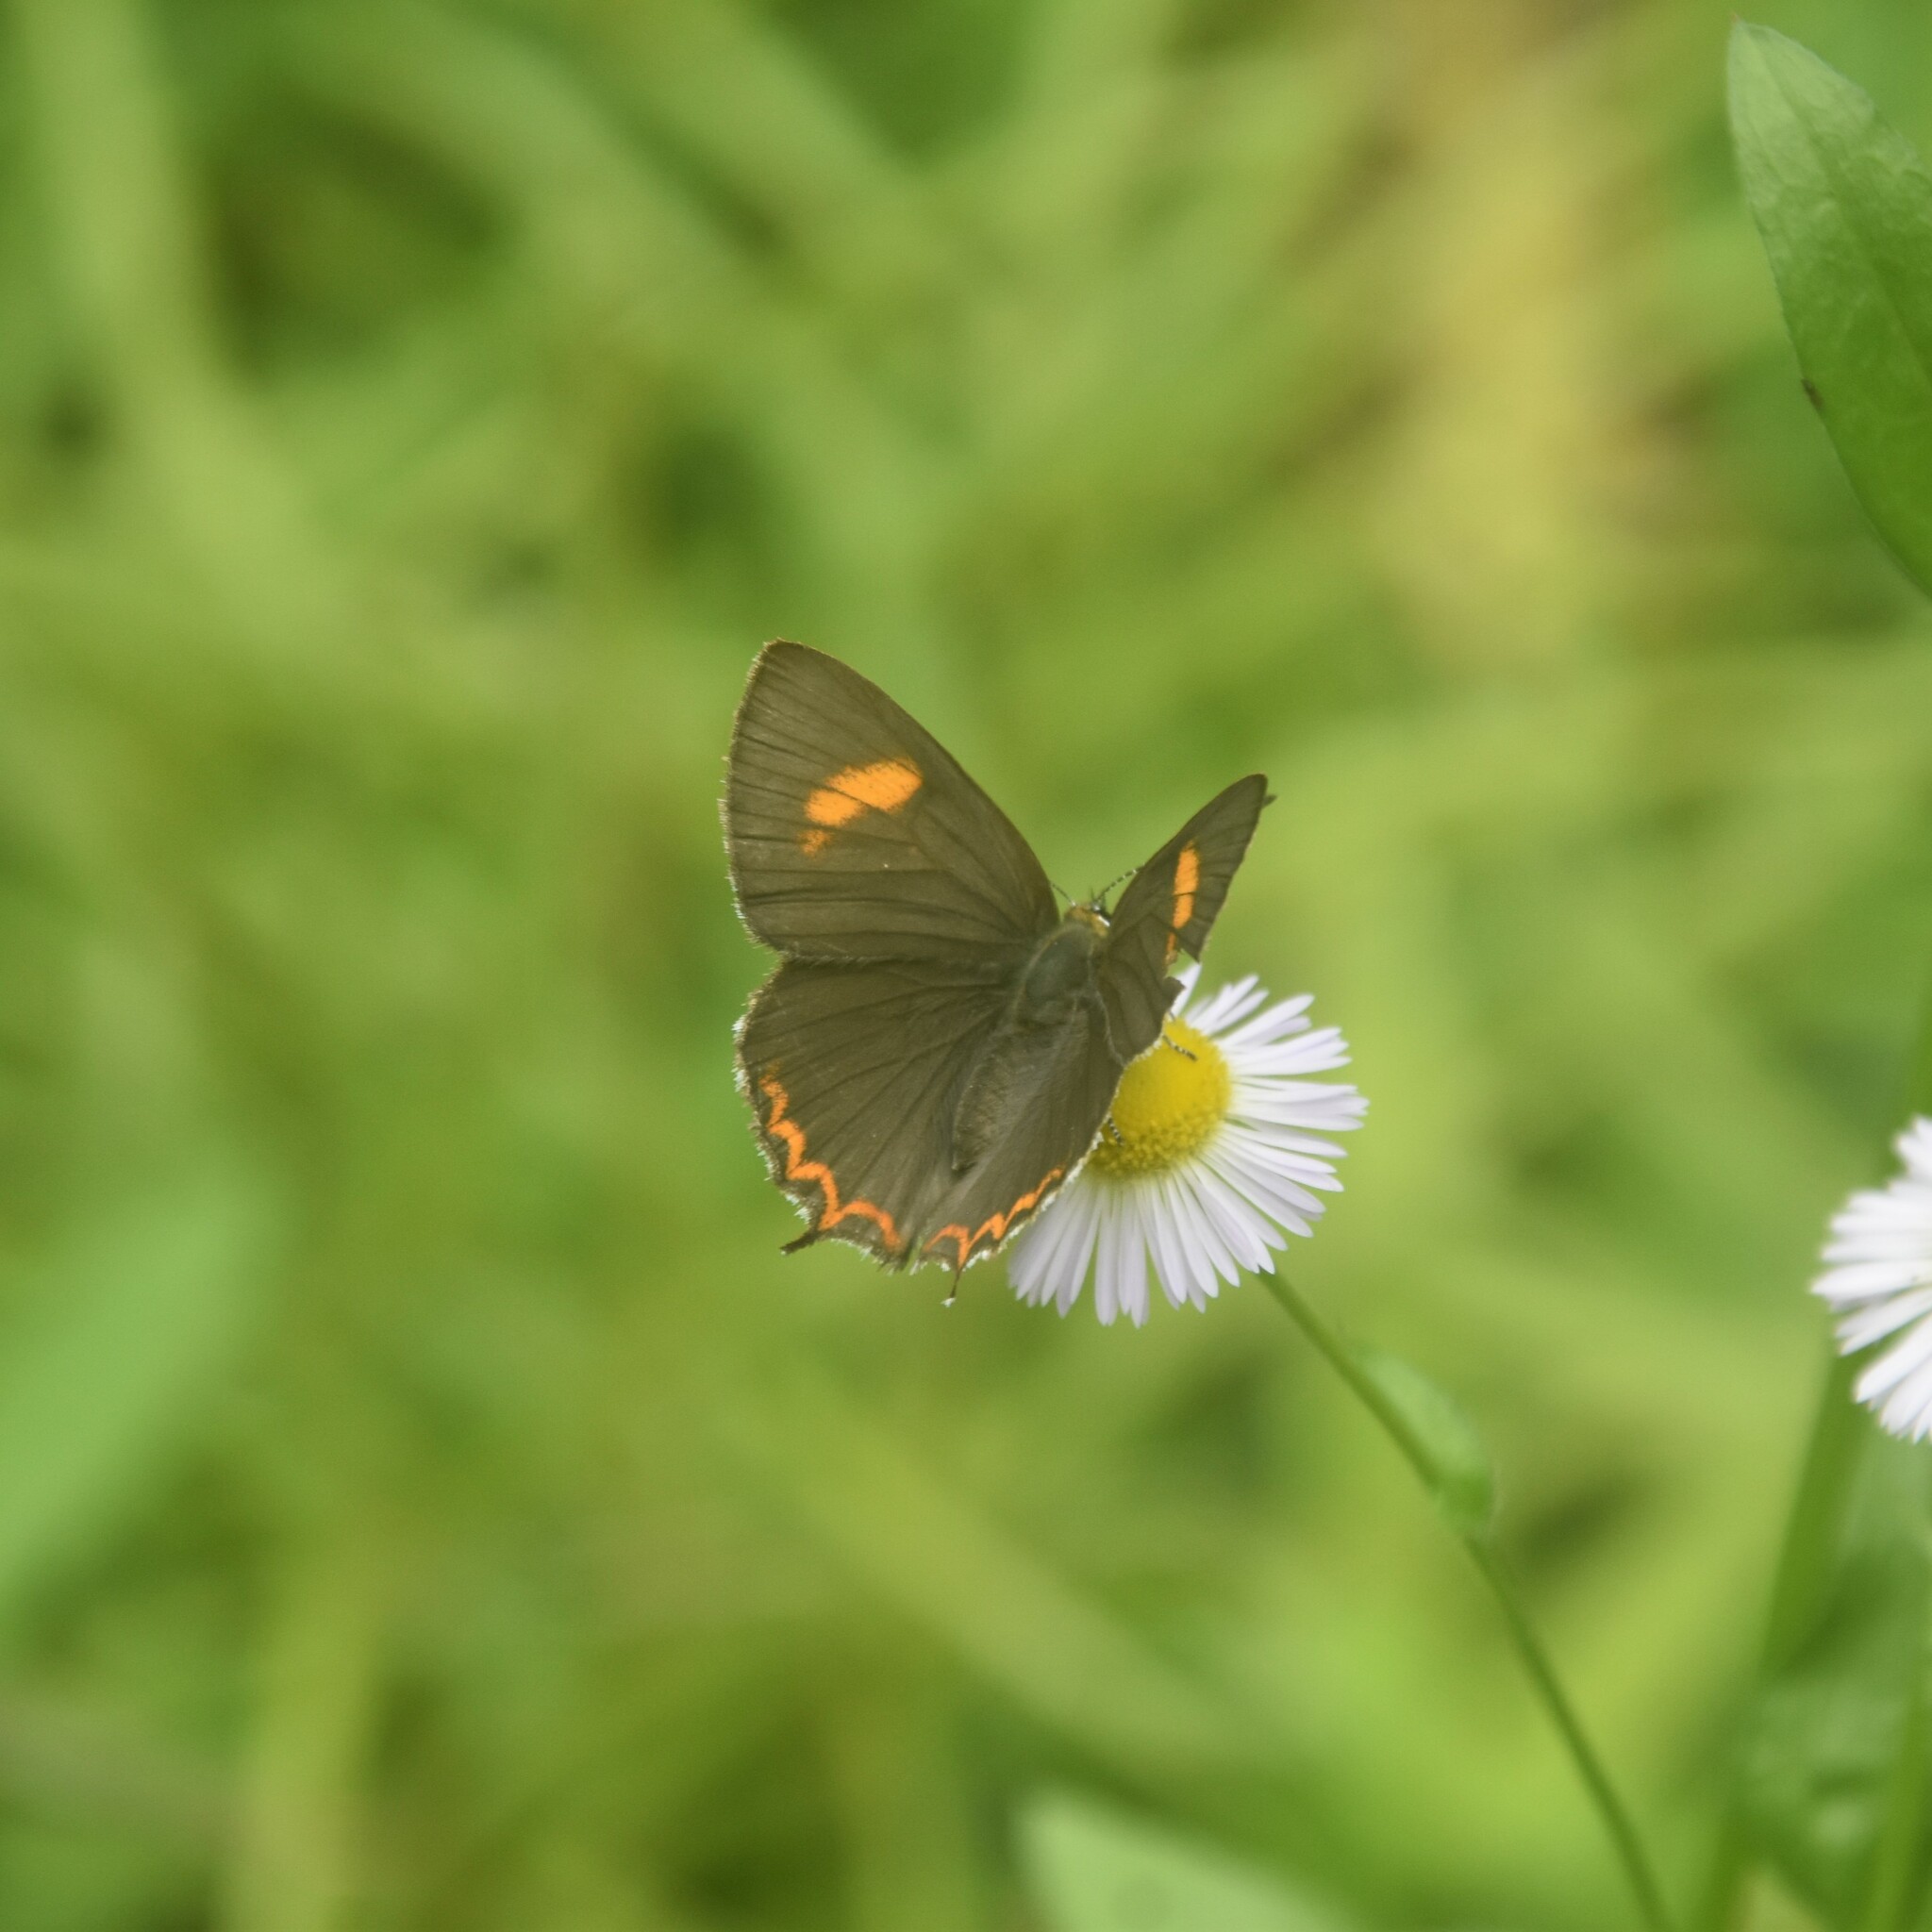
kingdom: Animalia
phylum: Arthropoda
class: Insecta
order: Lepidoptera
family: Lycaenidae
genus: Heliophorus
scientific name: Heliophorus
